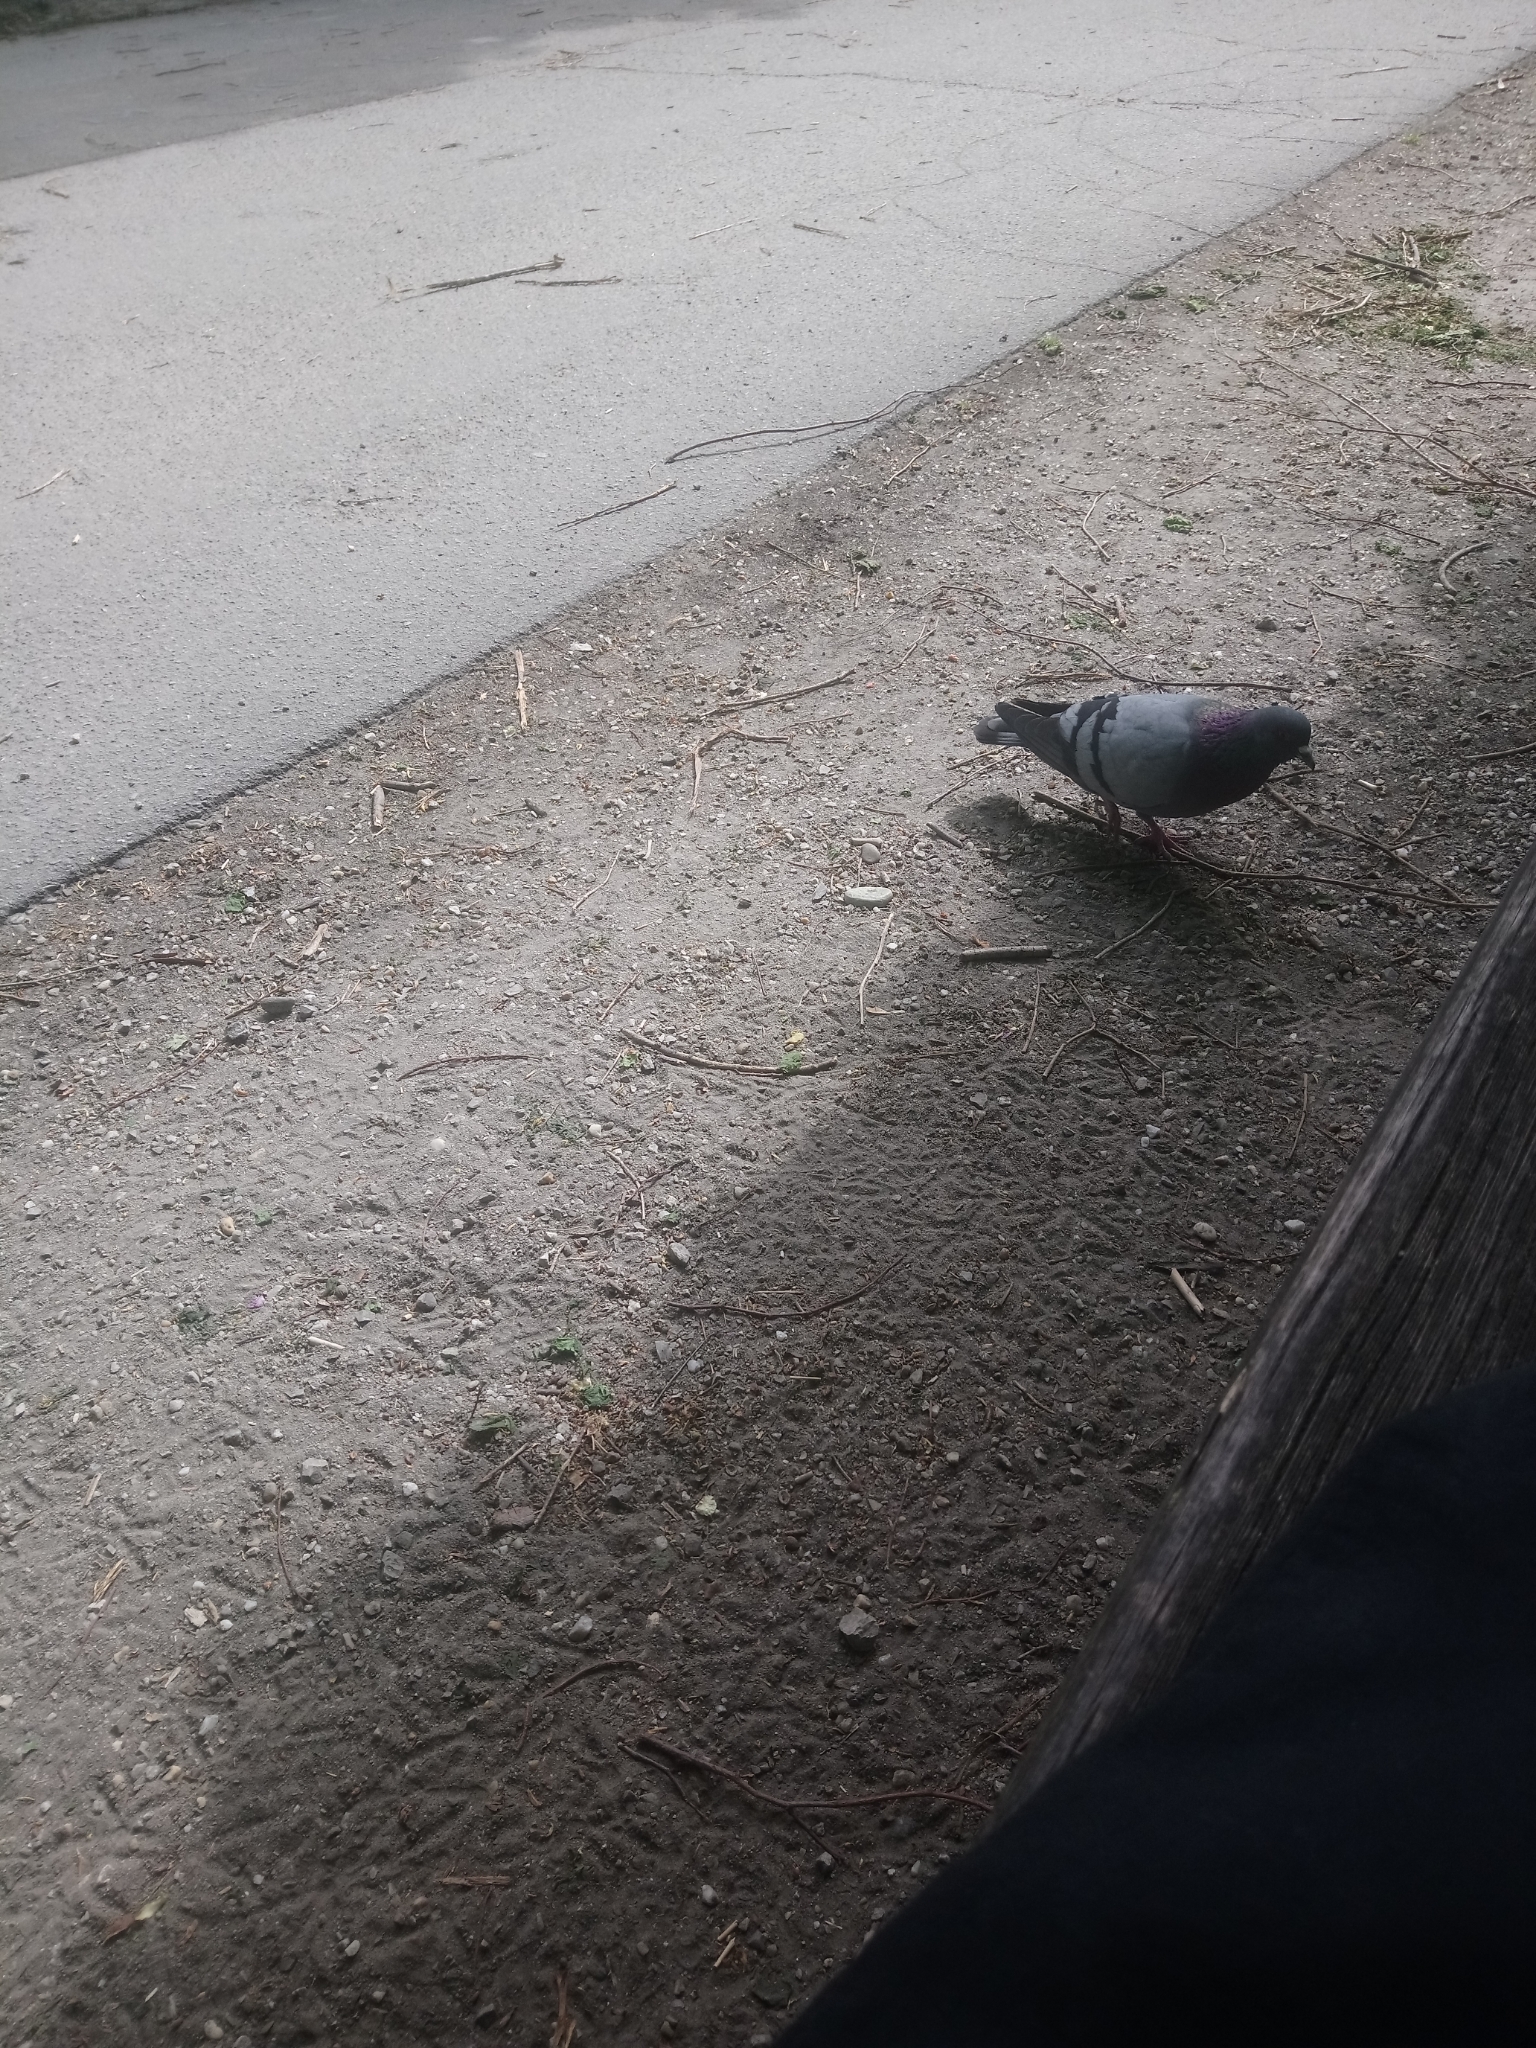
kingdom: Animalia
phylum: Chordata
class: Aves
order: Columbiformes
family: Columbidae
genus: Columba
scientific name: Columba livia
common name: Rock pigeon
